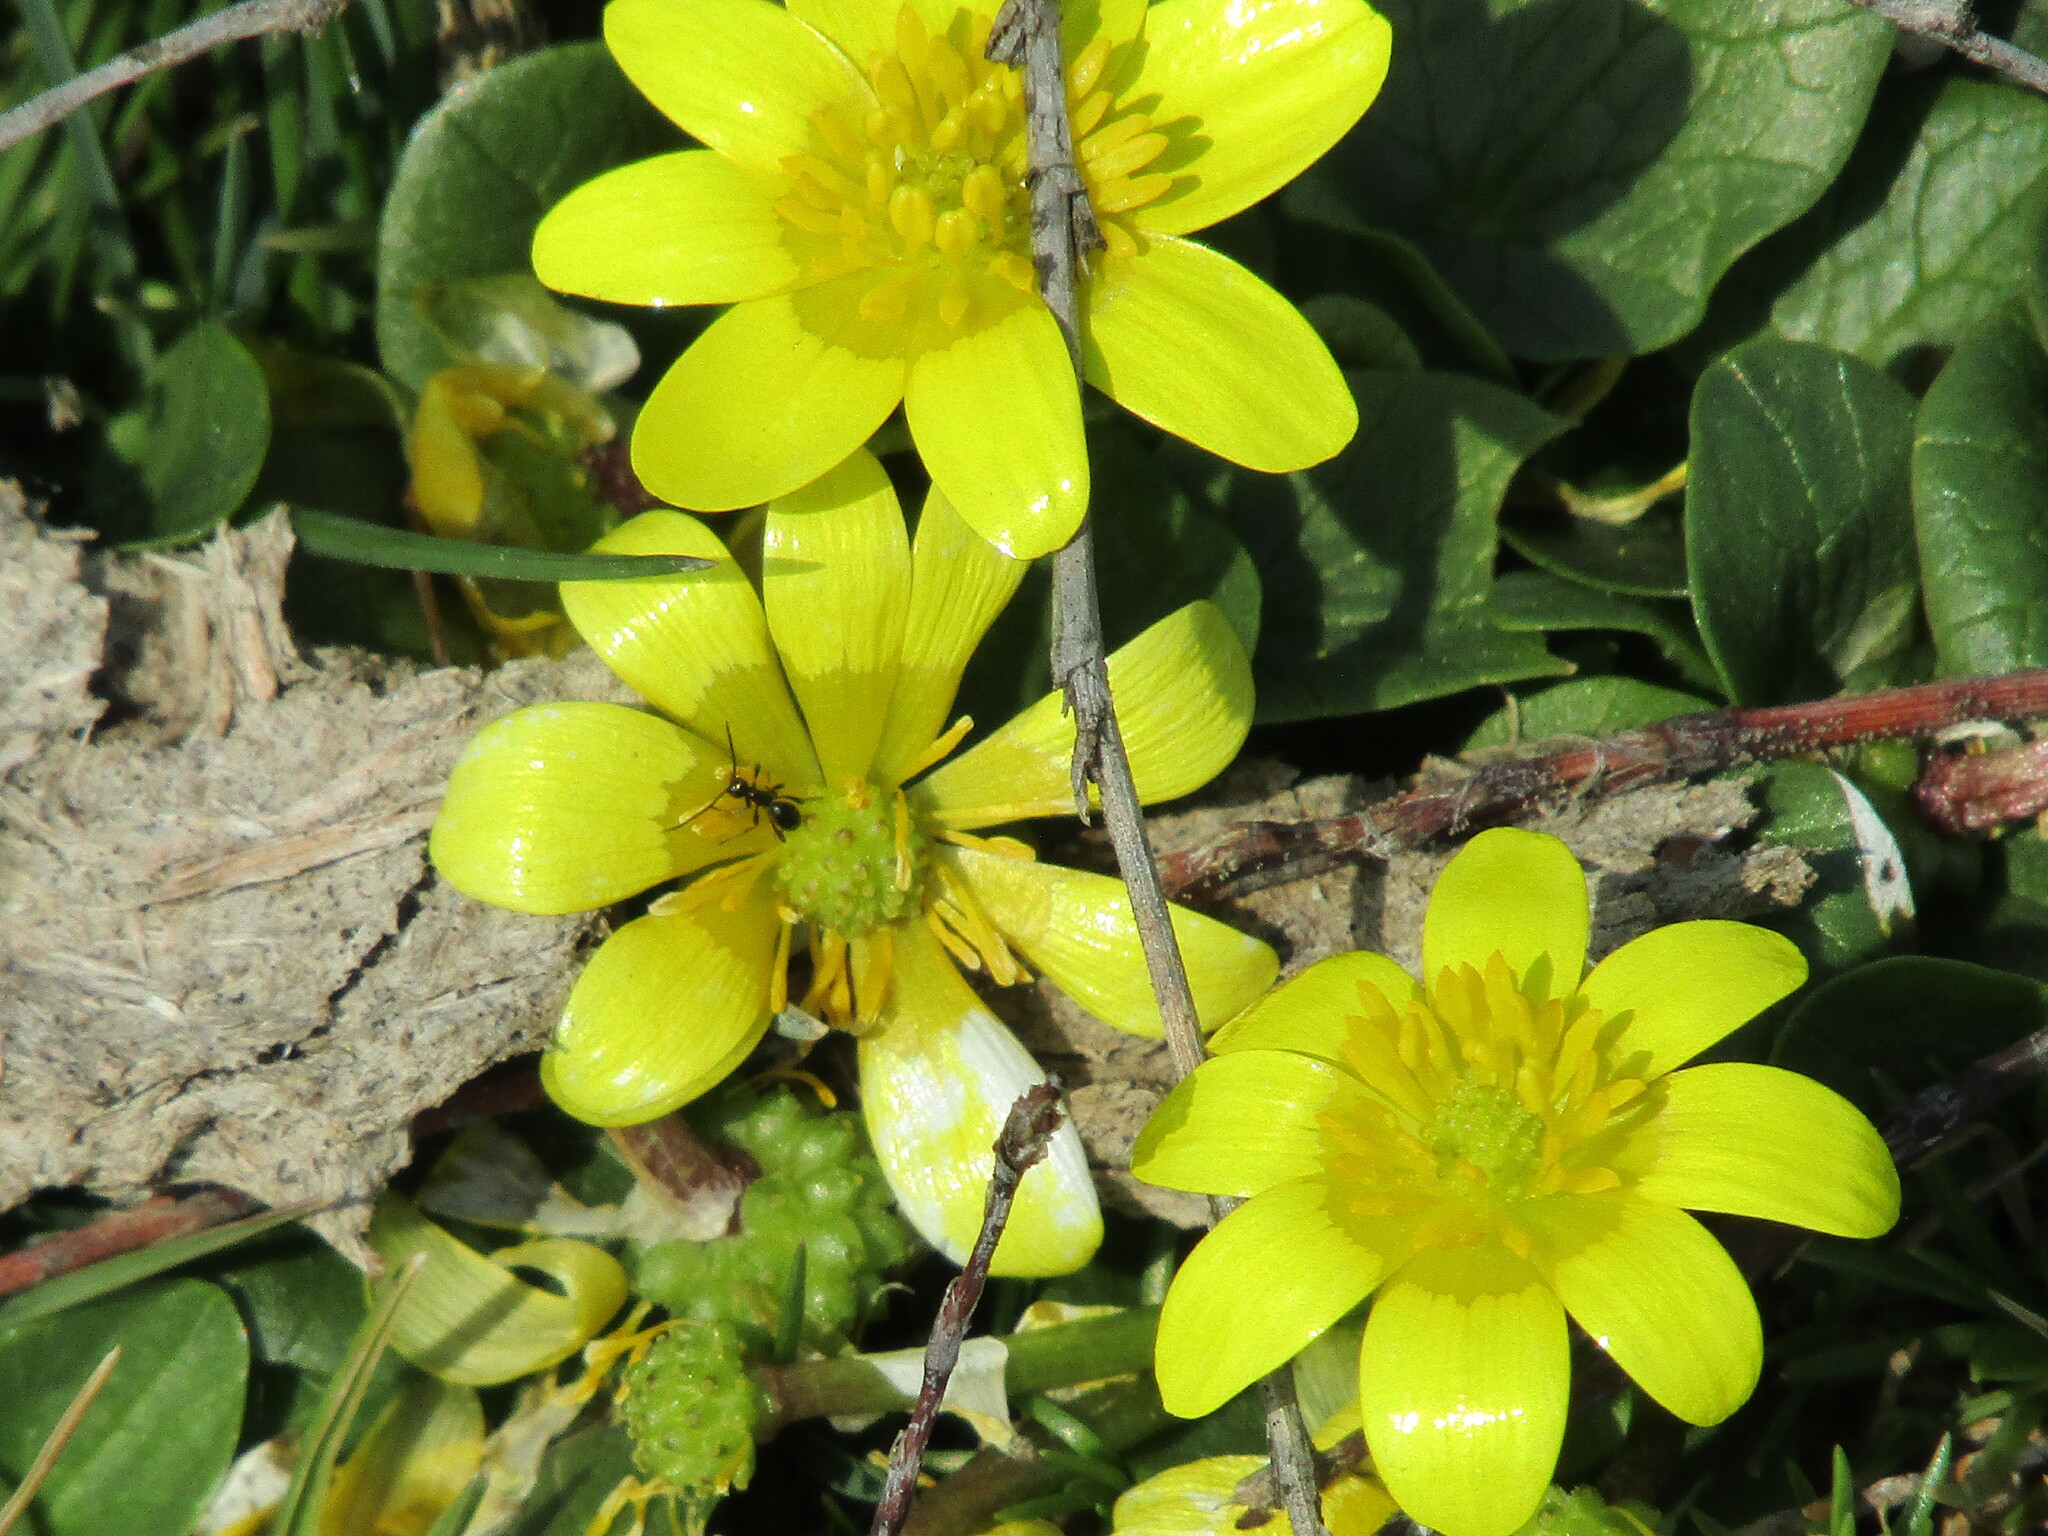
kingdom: Plantae
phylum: Tracheophyta
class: Magnoliopsida
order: Ranunculales
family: Ranunculaceae
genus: Ficaria
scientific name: Ficaria verna
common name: Lesser celandine
